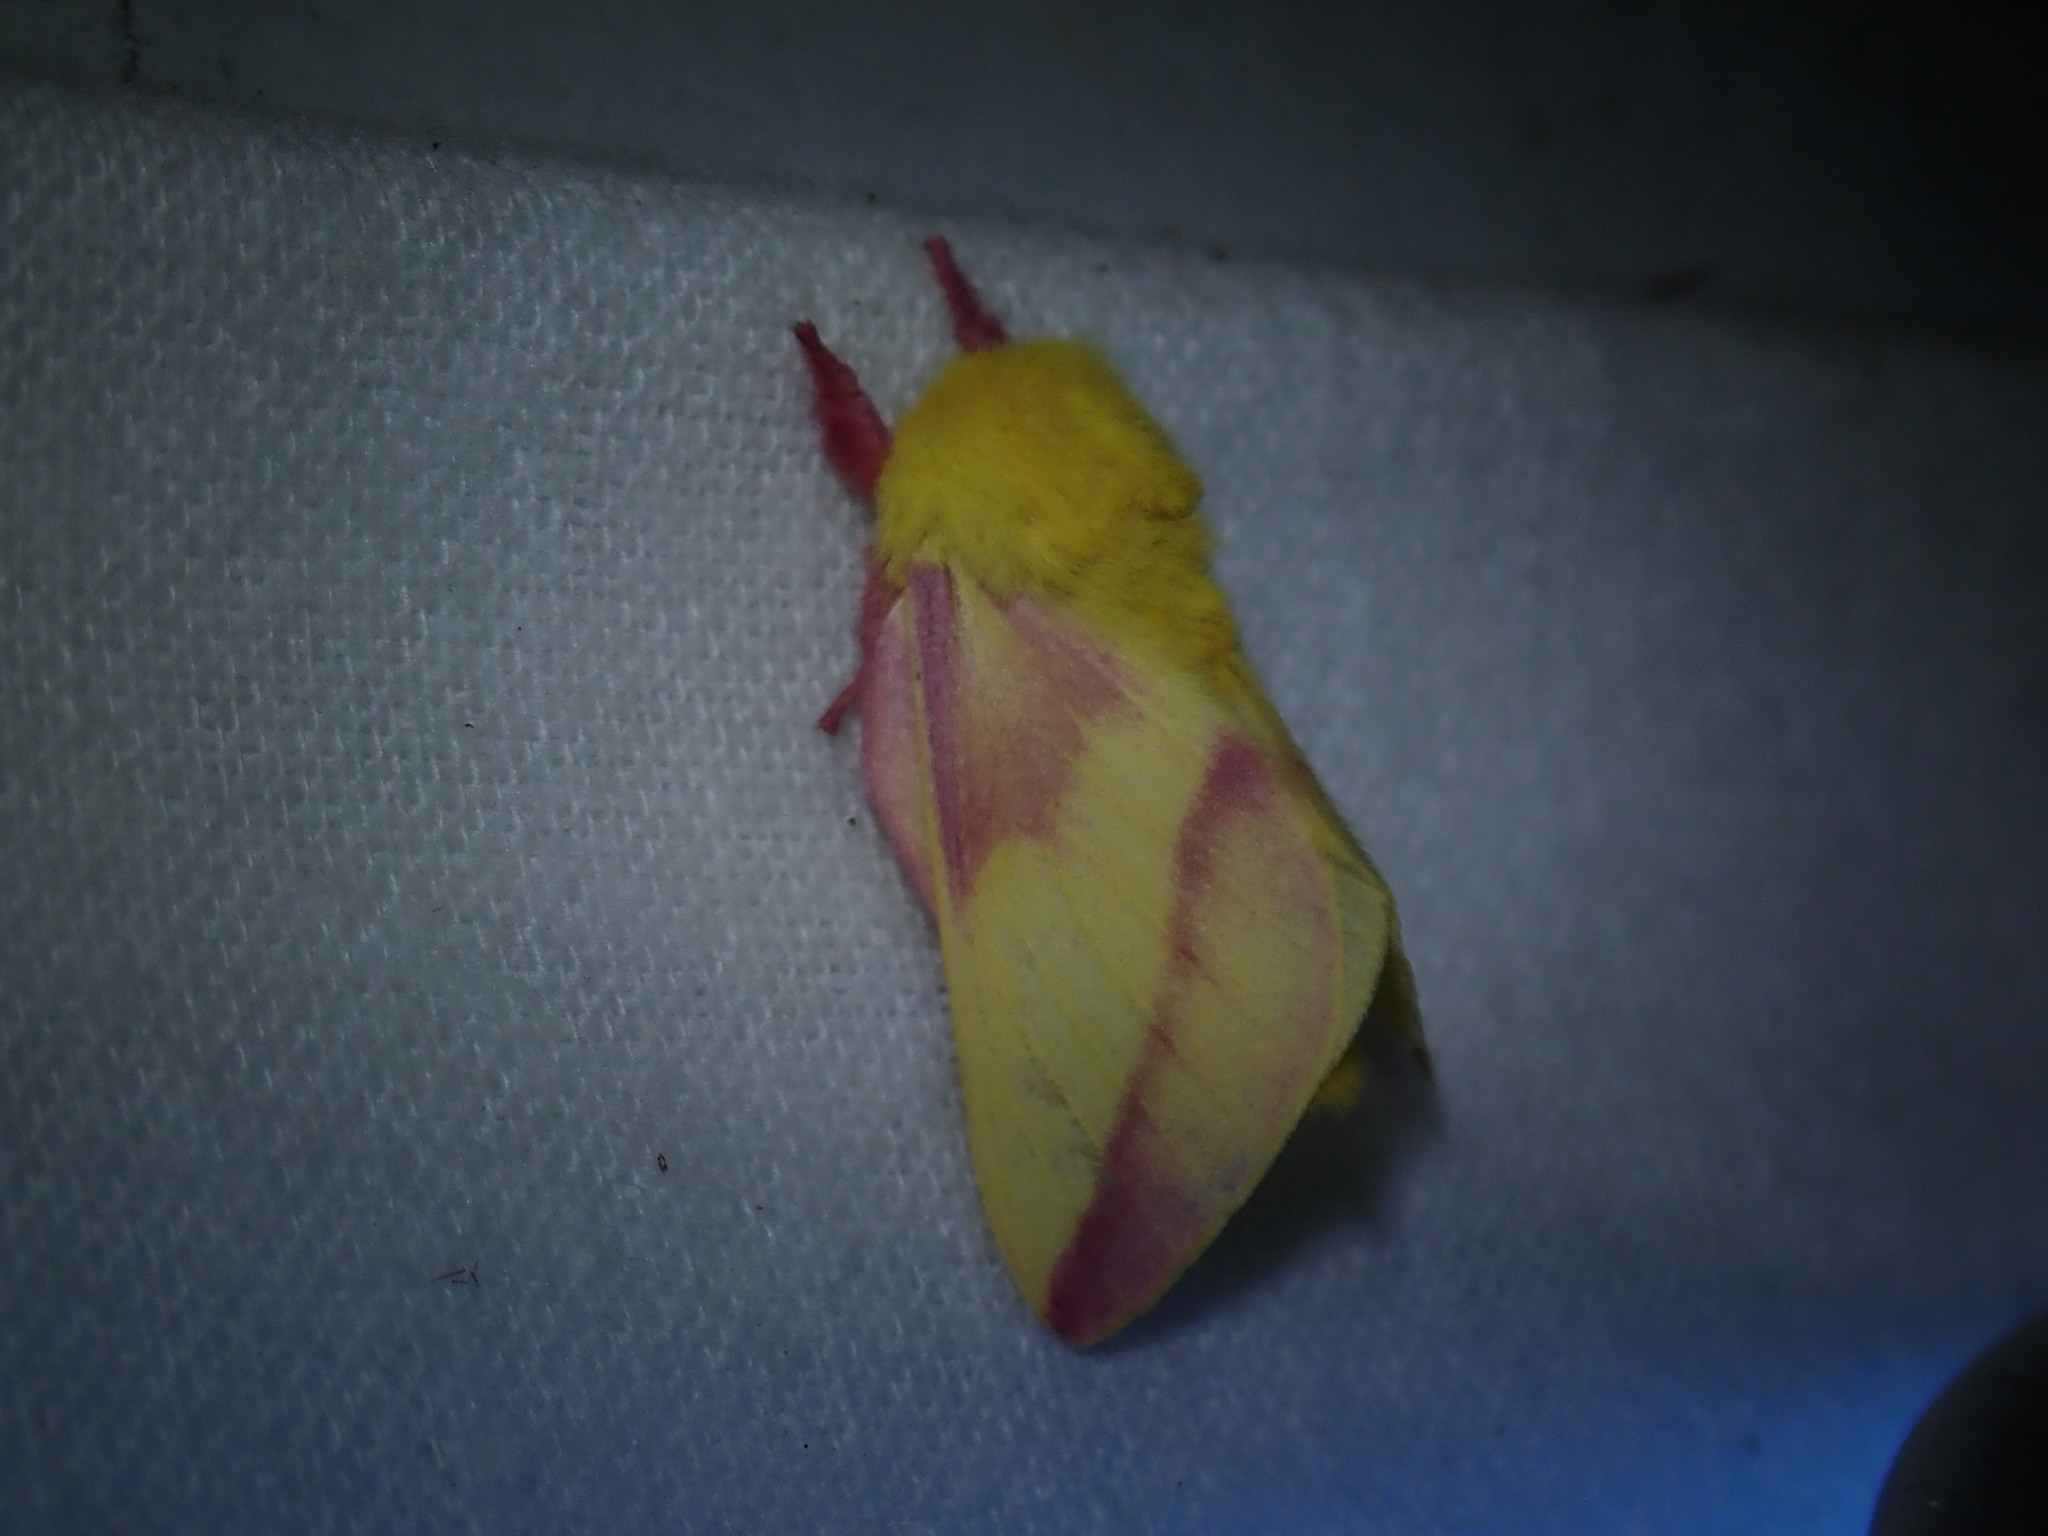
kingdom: Animalia
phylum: Arthropoda
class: Insecta
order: Lepidoptera
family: Saturniidae
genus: Dryocampa
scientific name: Dryocampa rubicunda
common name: Rosy maple moth
